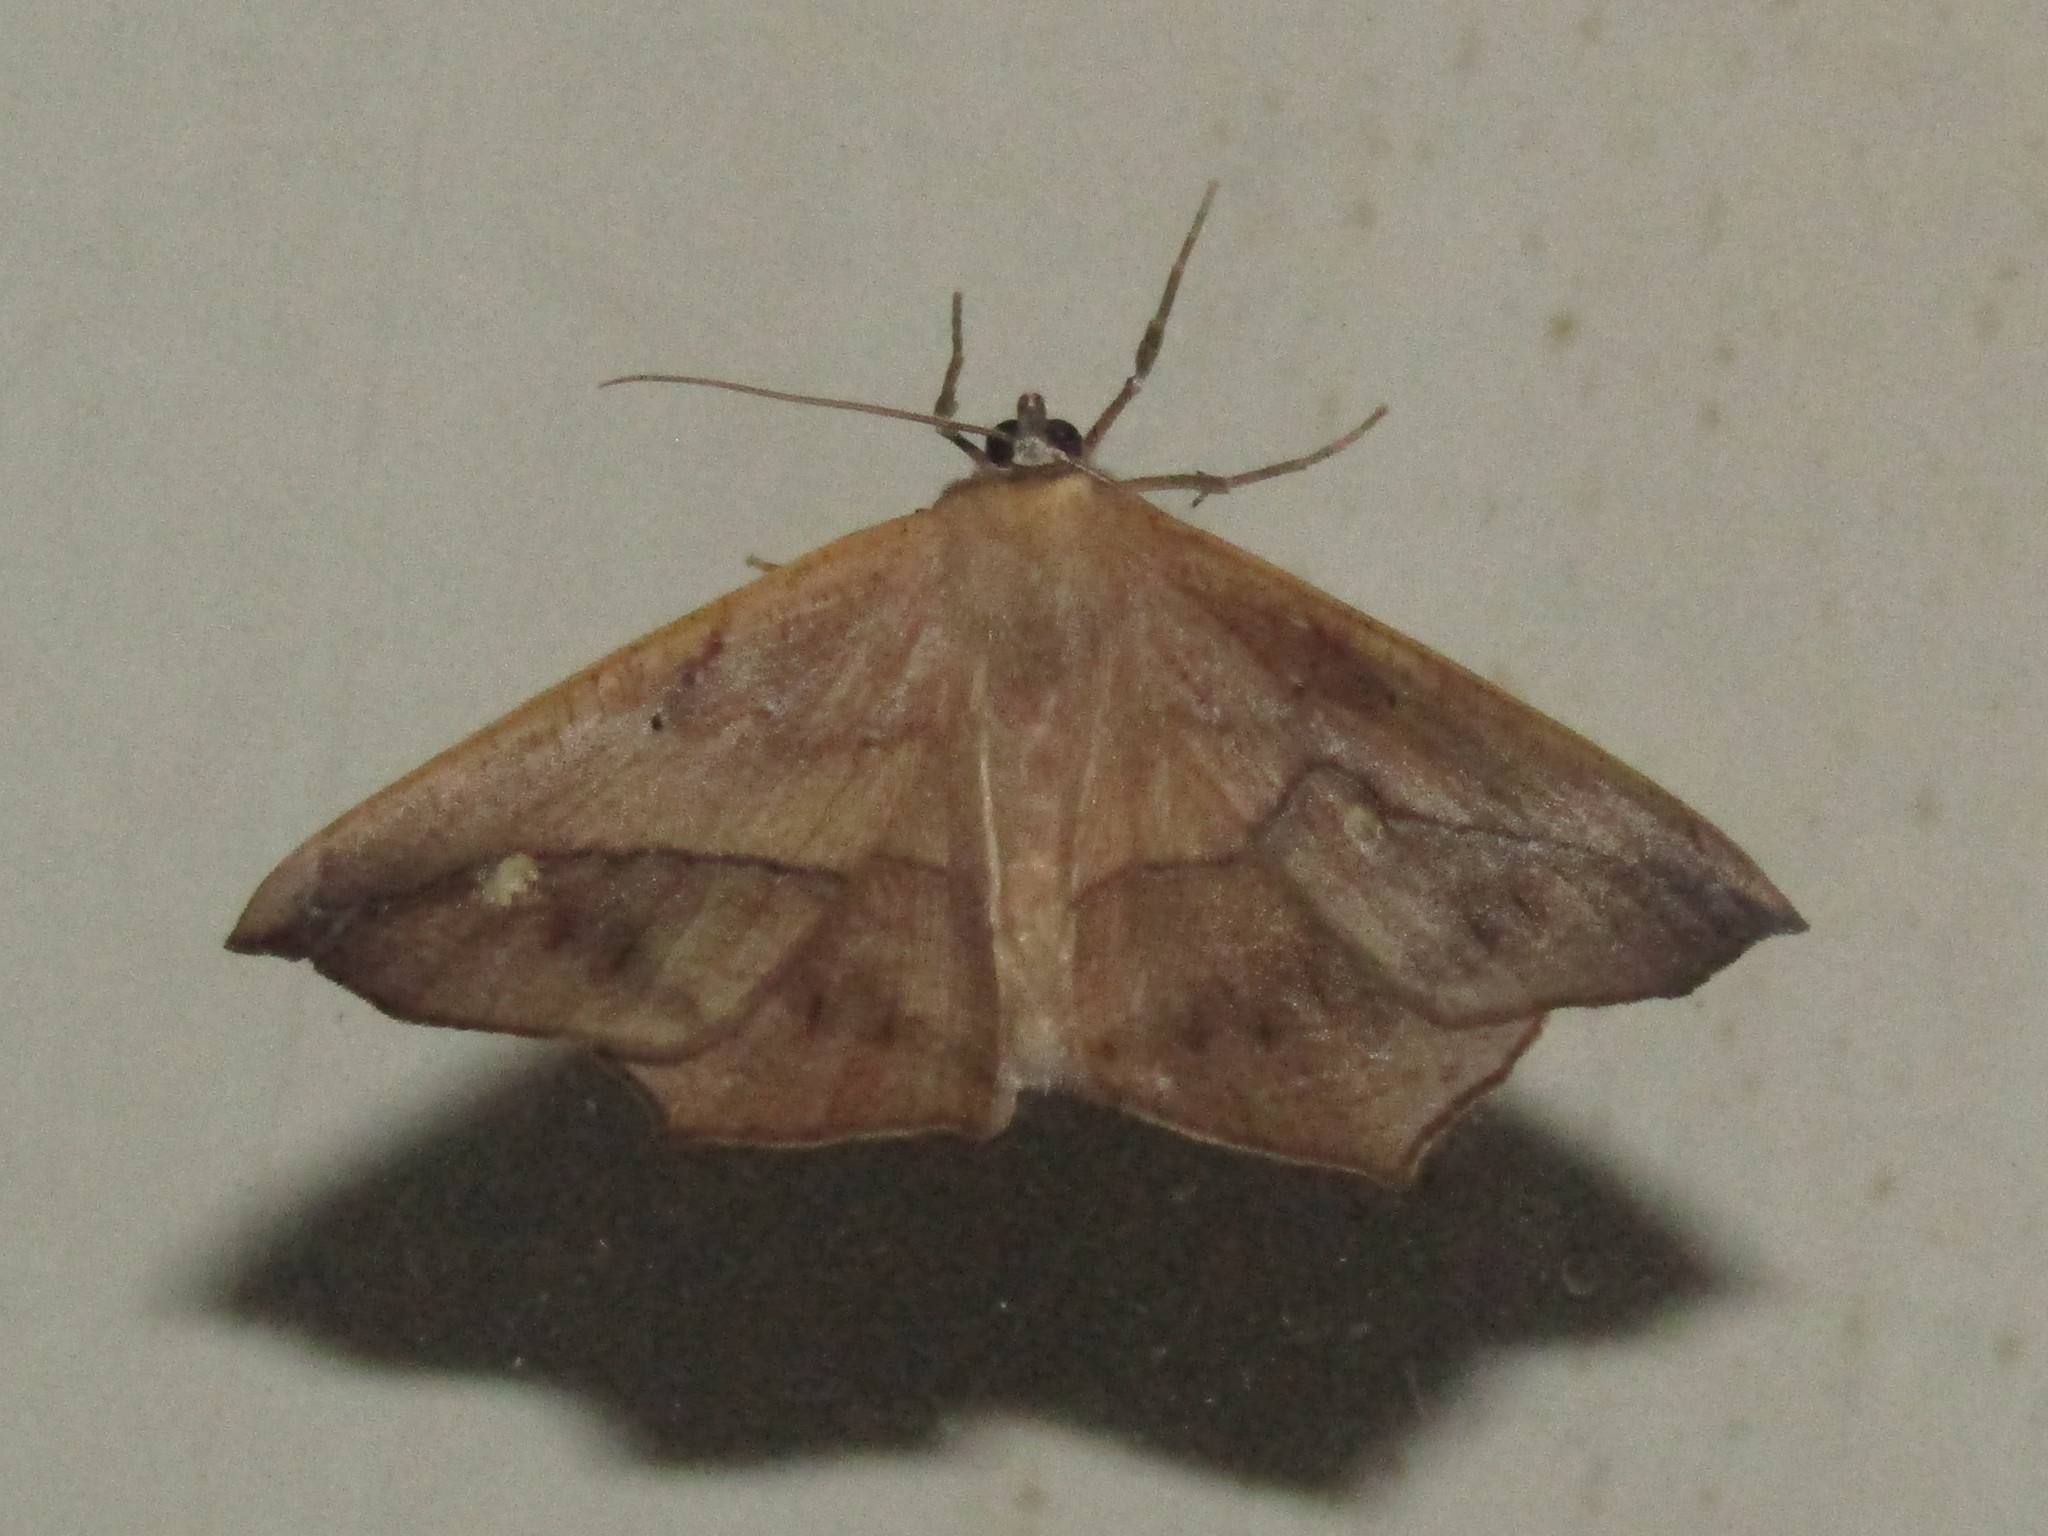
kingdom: Animalia
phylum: Arthropoda
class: Insecta
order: Lepidoptera
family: Geometridae
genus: Prochoerodes
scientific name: Prochoerodes lineola
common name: Large maple spanworm
